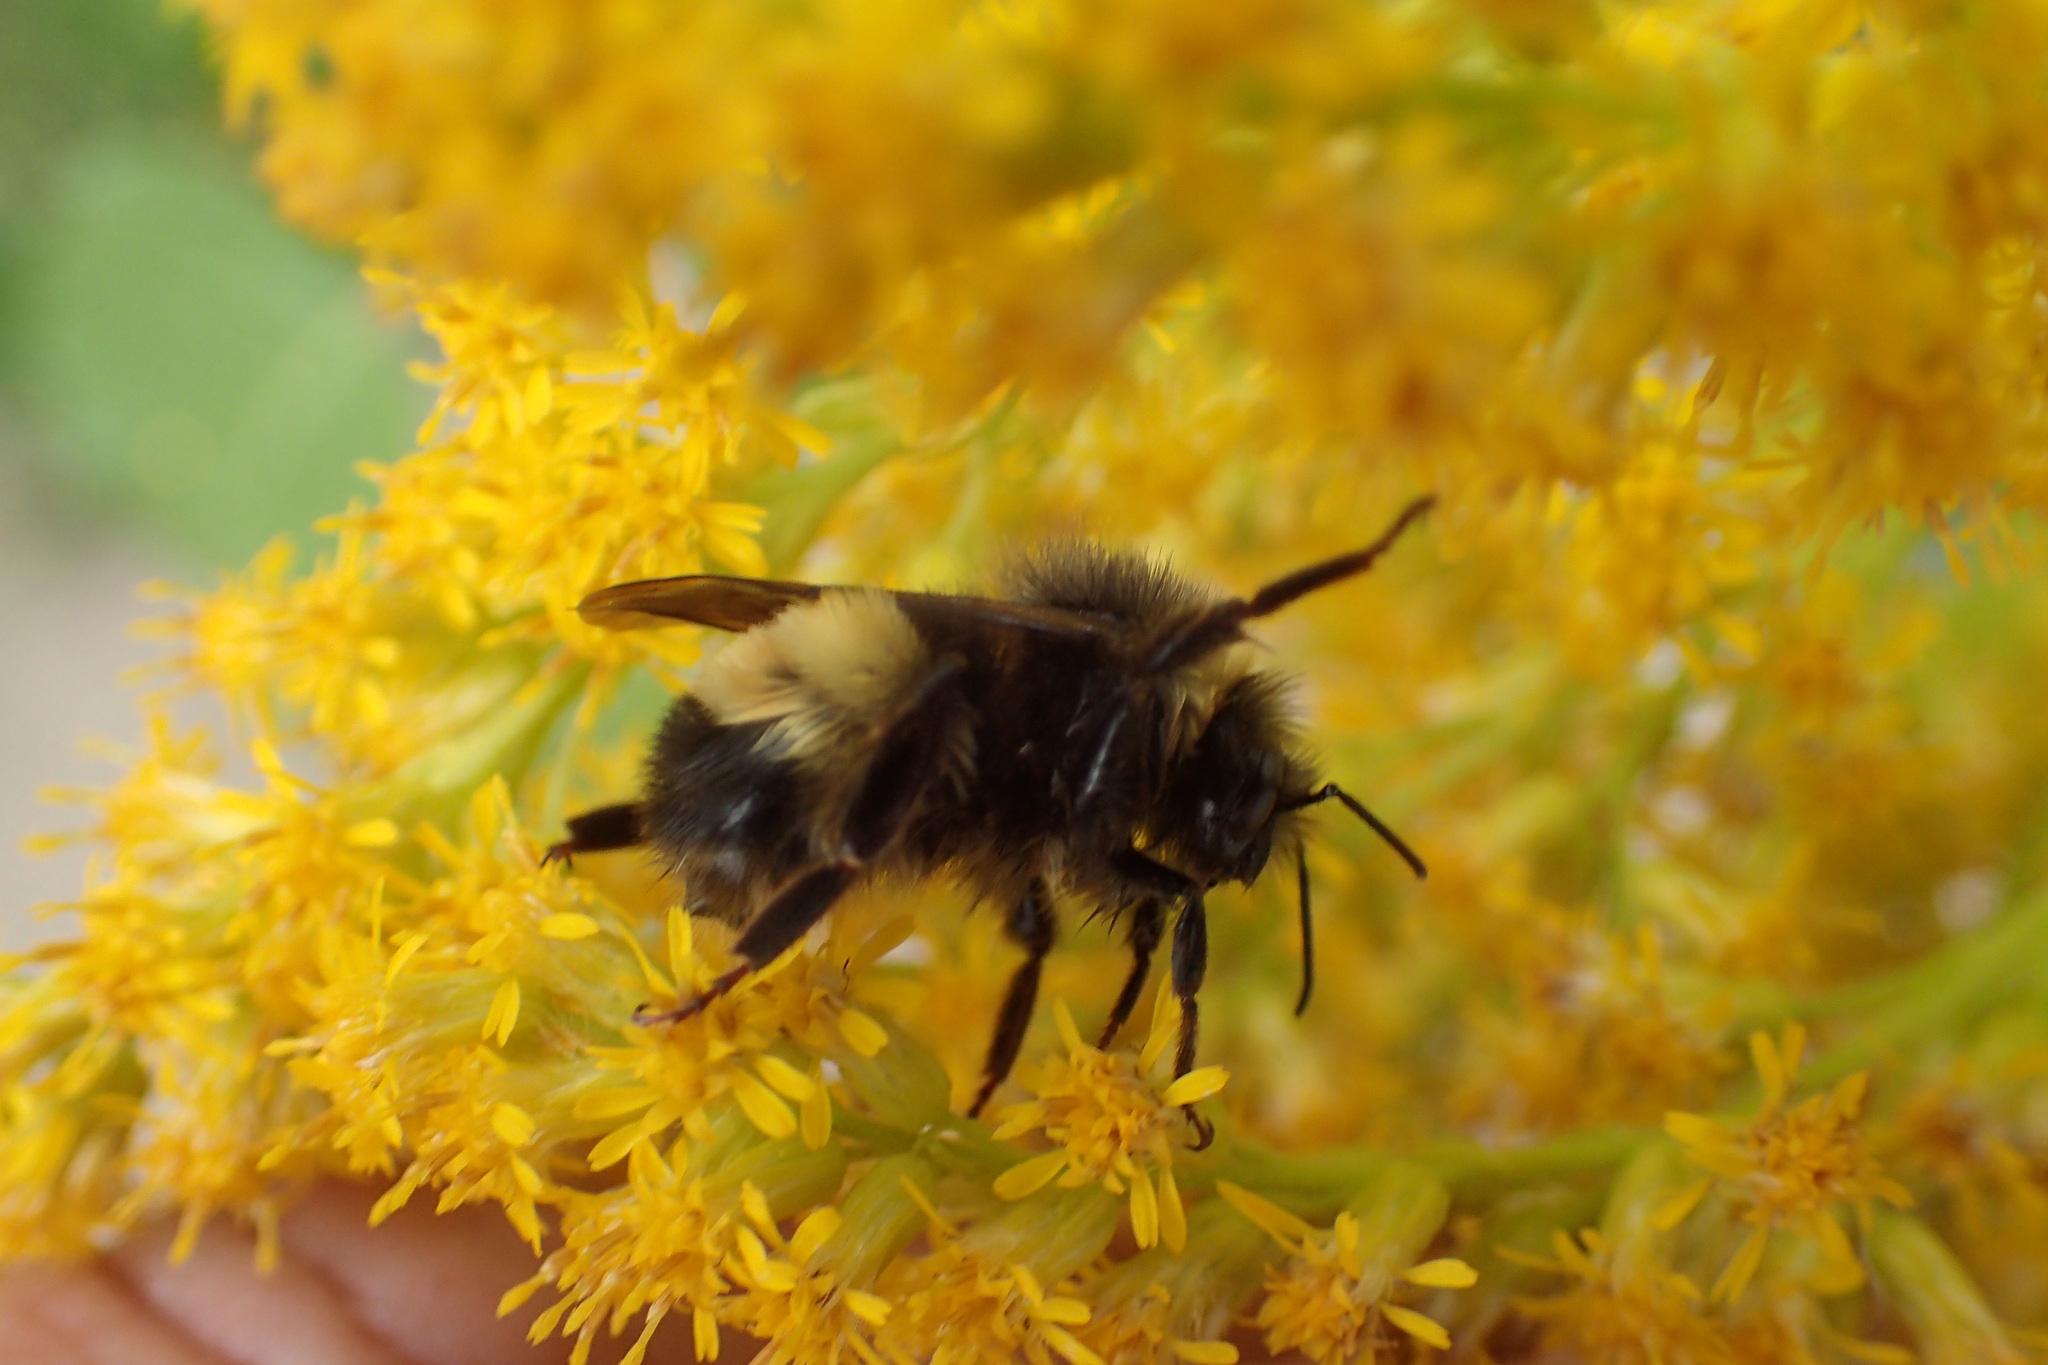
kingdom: Animalia
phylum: Arthropoda
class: Insecta
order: Hymenoptera
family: Apidae
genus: Bombus
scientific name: Bombus terricola
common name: Yellow-banded bumble bee
